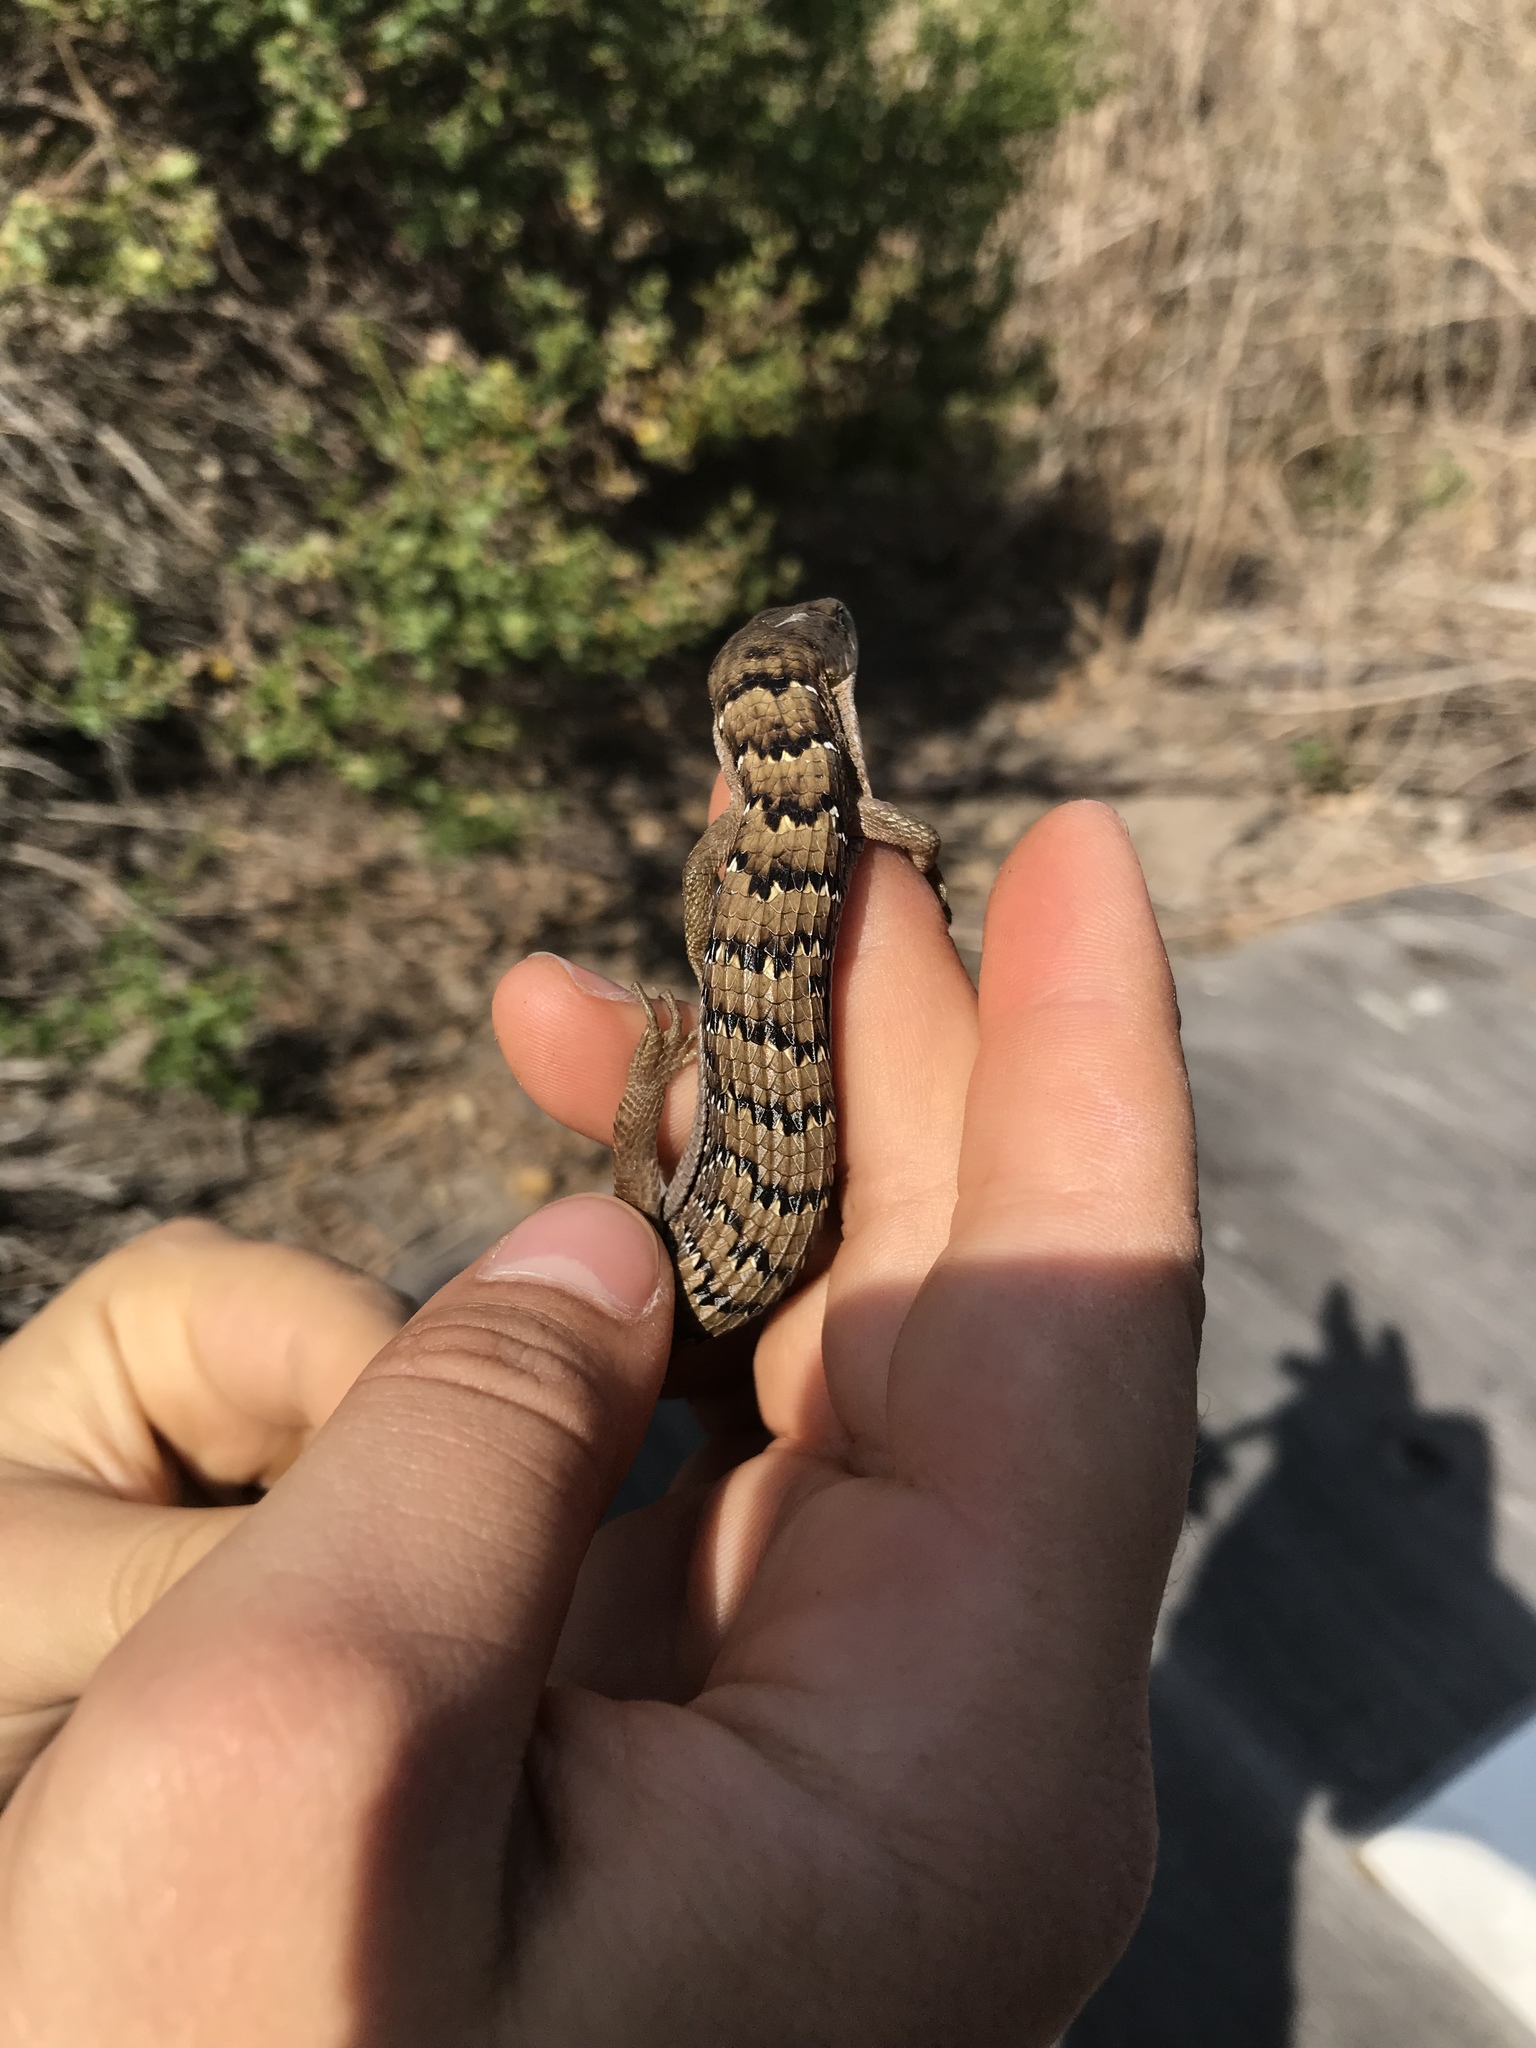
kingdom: Animalia
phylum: Chordata
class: Squamata
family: Anguidae
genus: Elgaria
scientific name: Elgaria multicarinata
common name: Southern alligator lizard
